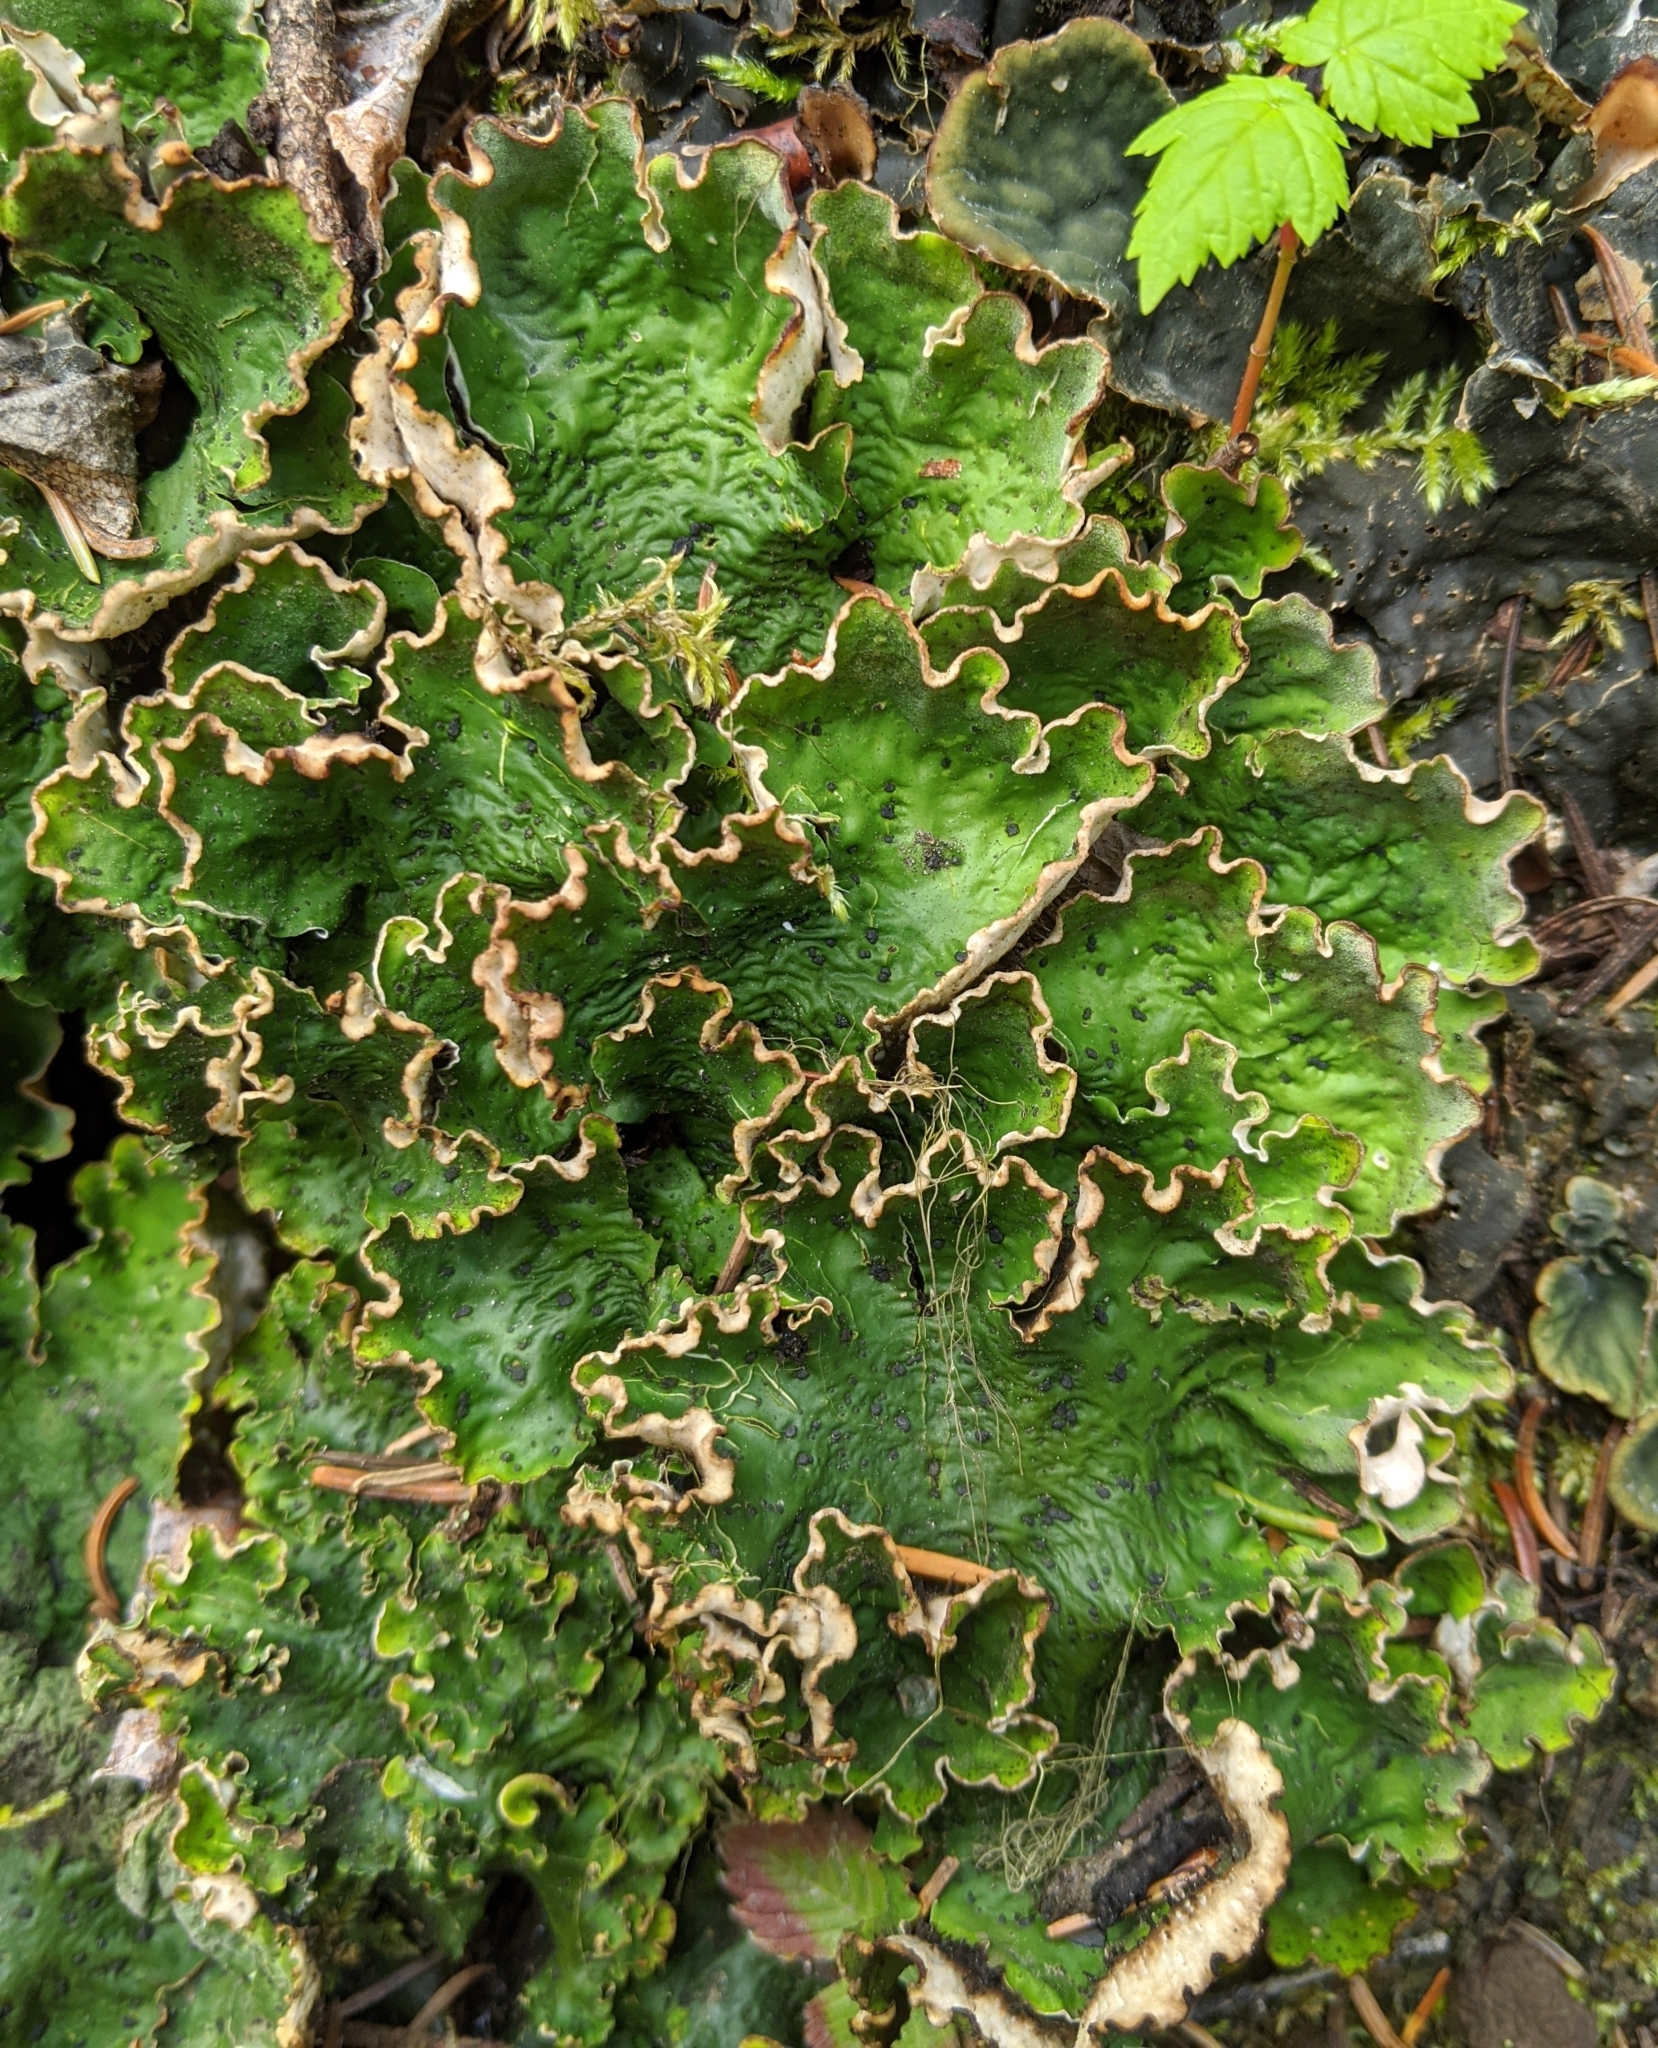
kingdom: Fungi
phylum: Ascomycota
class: Lecanoromycetes
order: Peltigerales
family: Peltigeraceae
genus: Peltigera
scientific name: Peltigera aphthosa
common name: Common freckle pelt lichen
